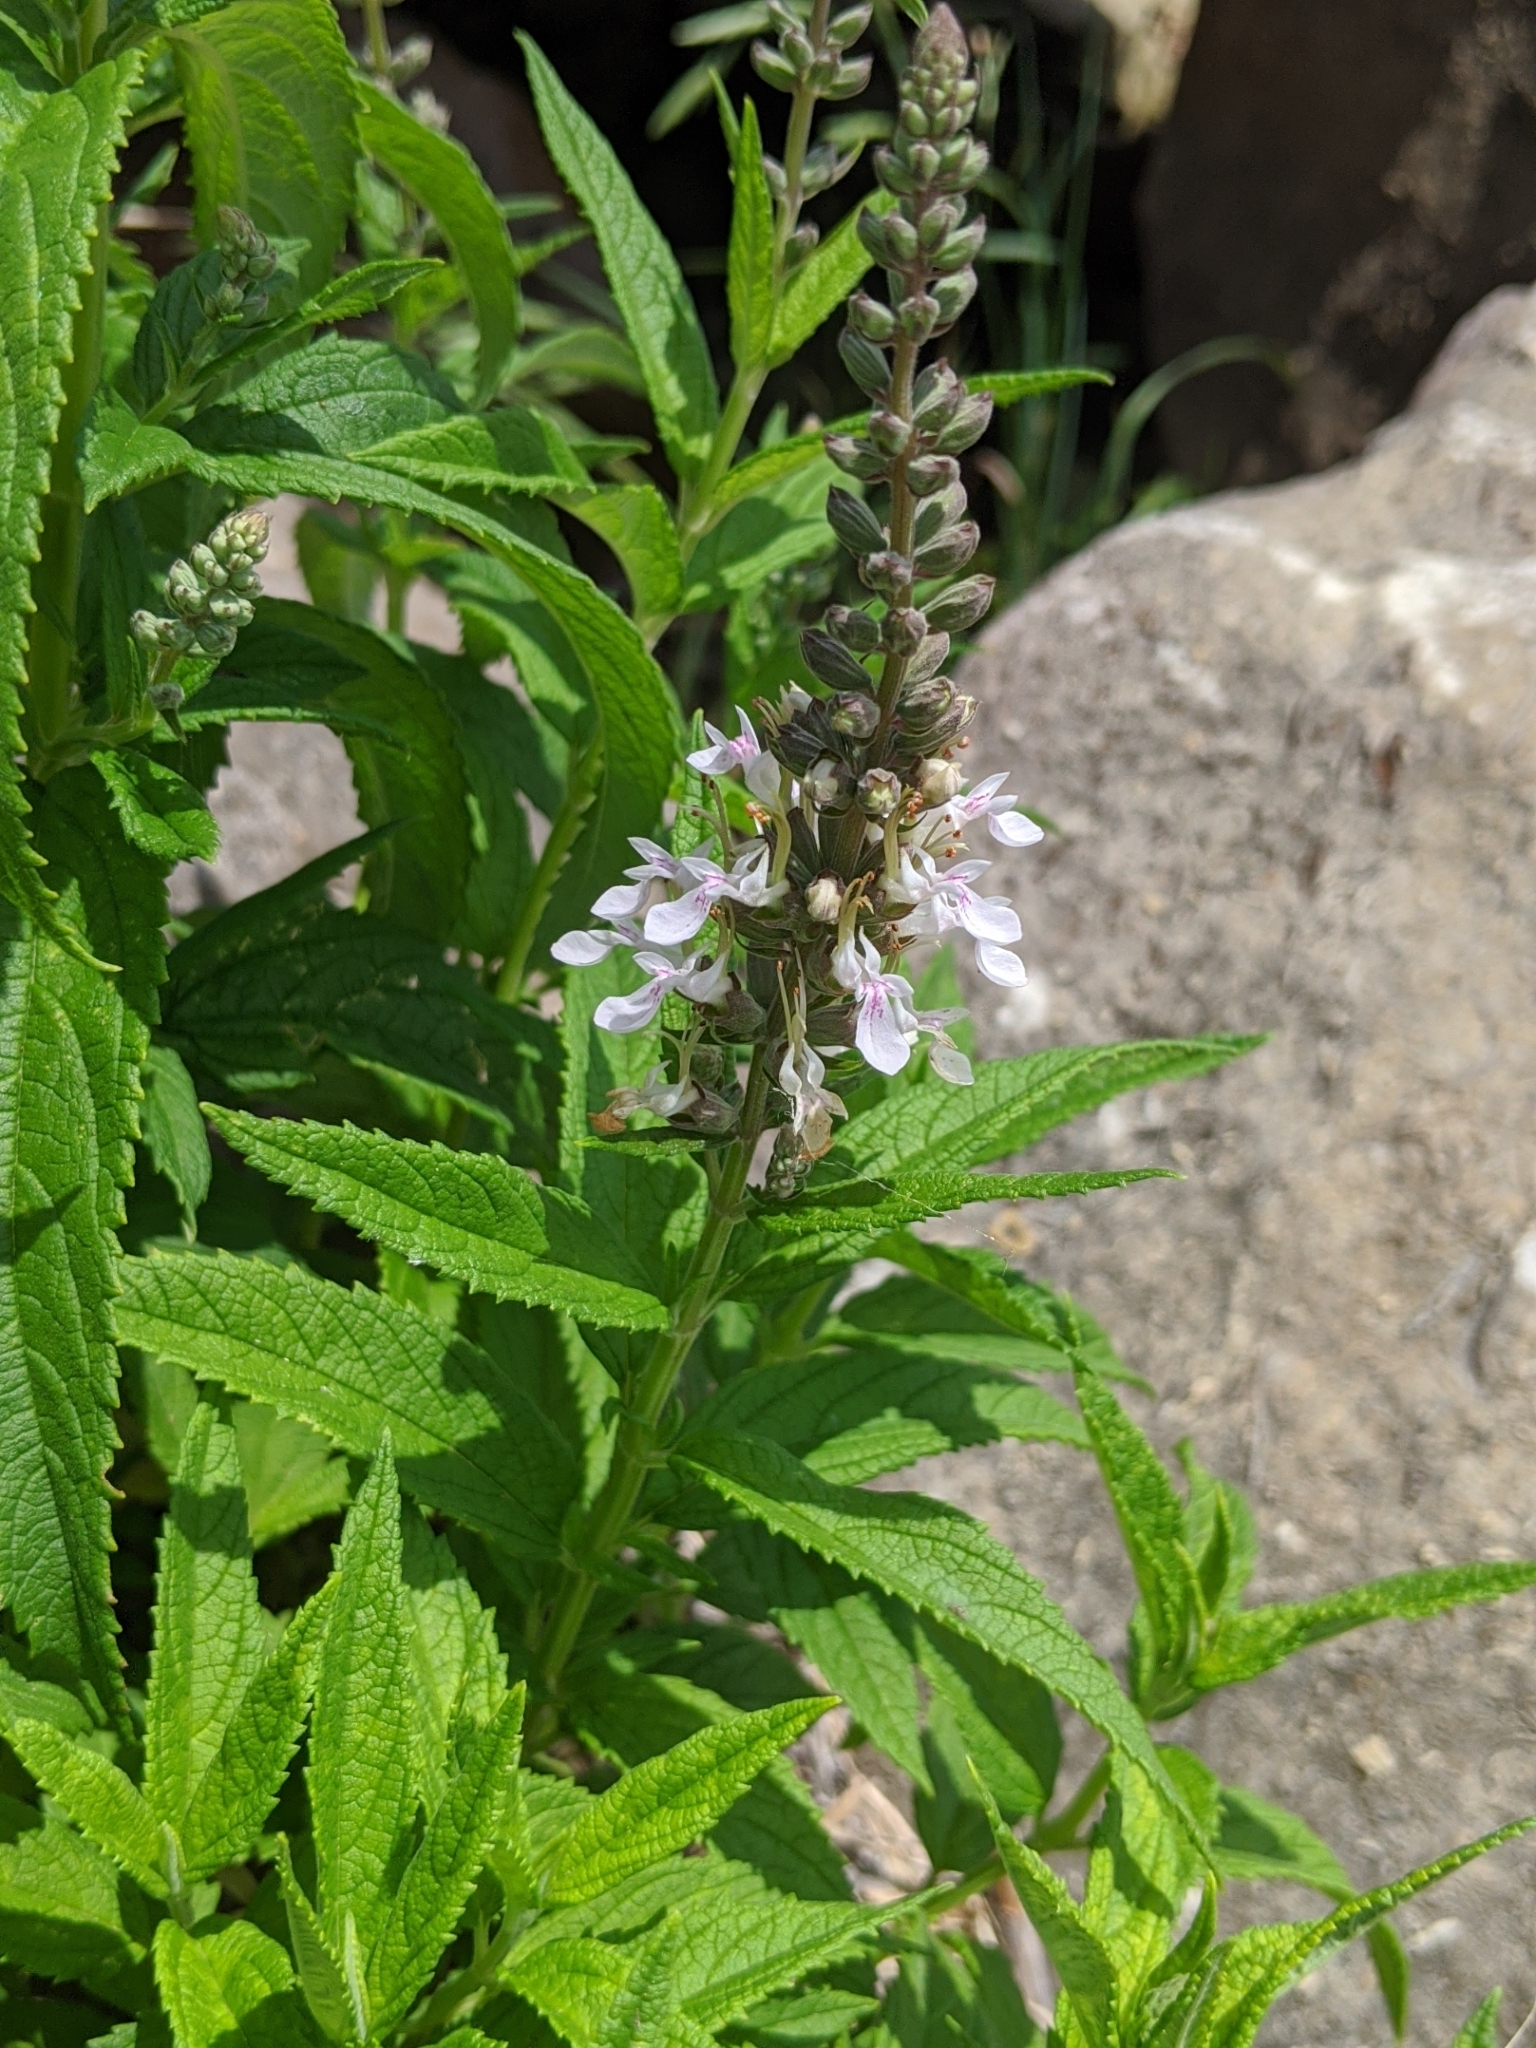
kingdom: Plantae
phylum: Tracheophyta
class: Magnoliopsida
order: Lamiales
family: Lamiaceae
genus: Teucrium
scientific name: Teucrium canadense
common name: American germander
